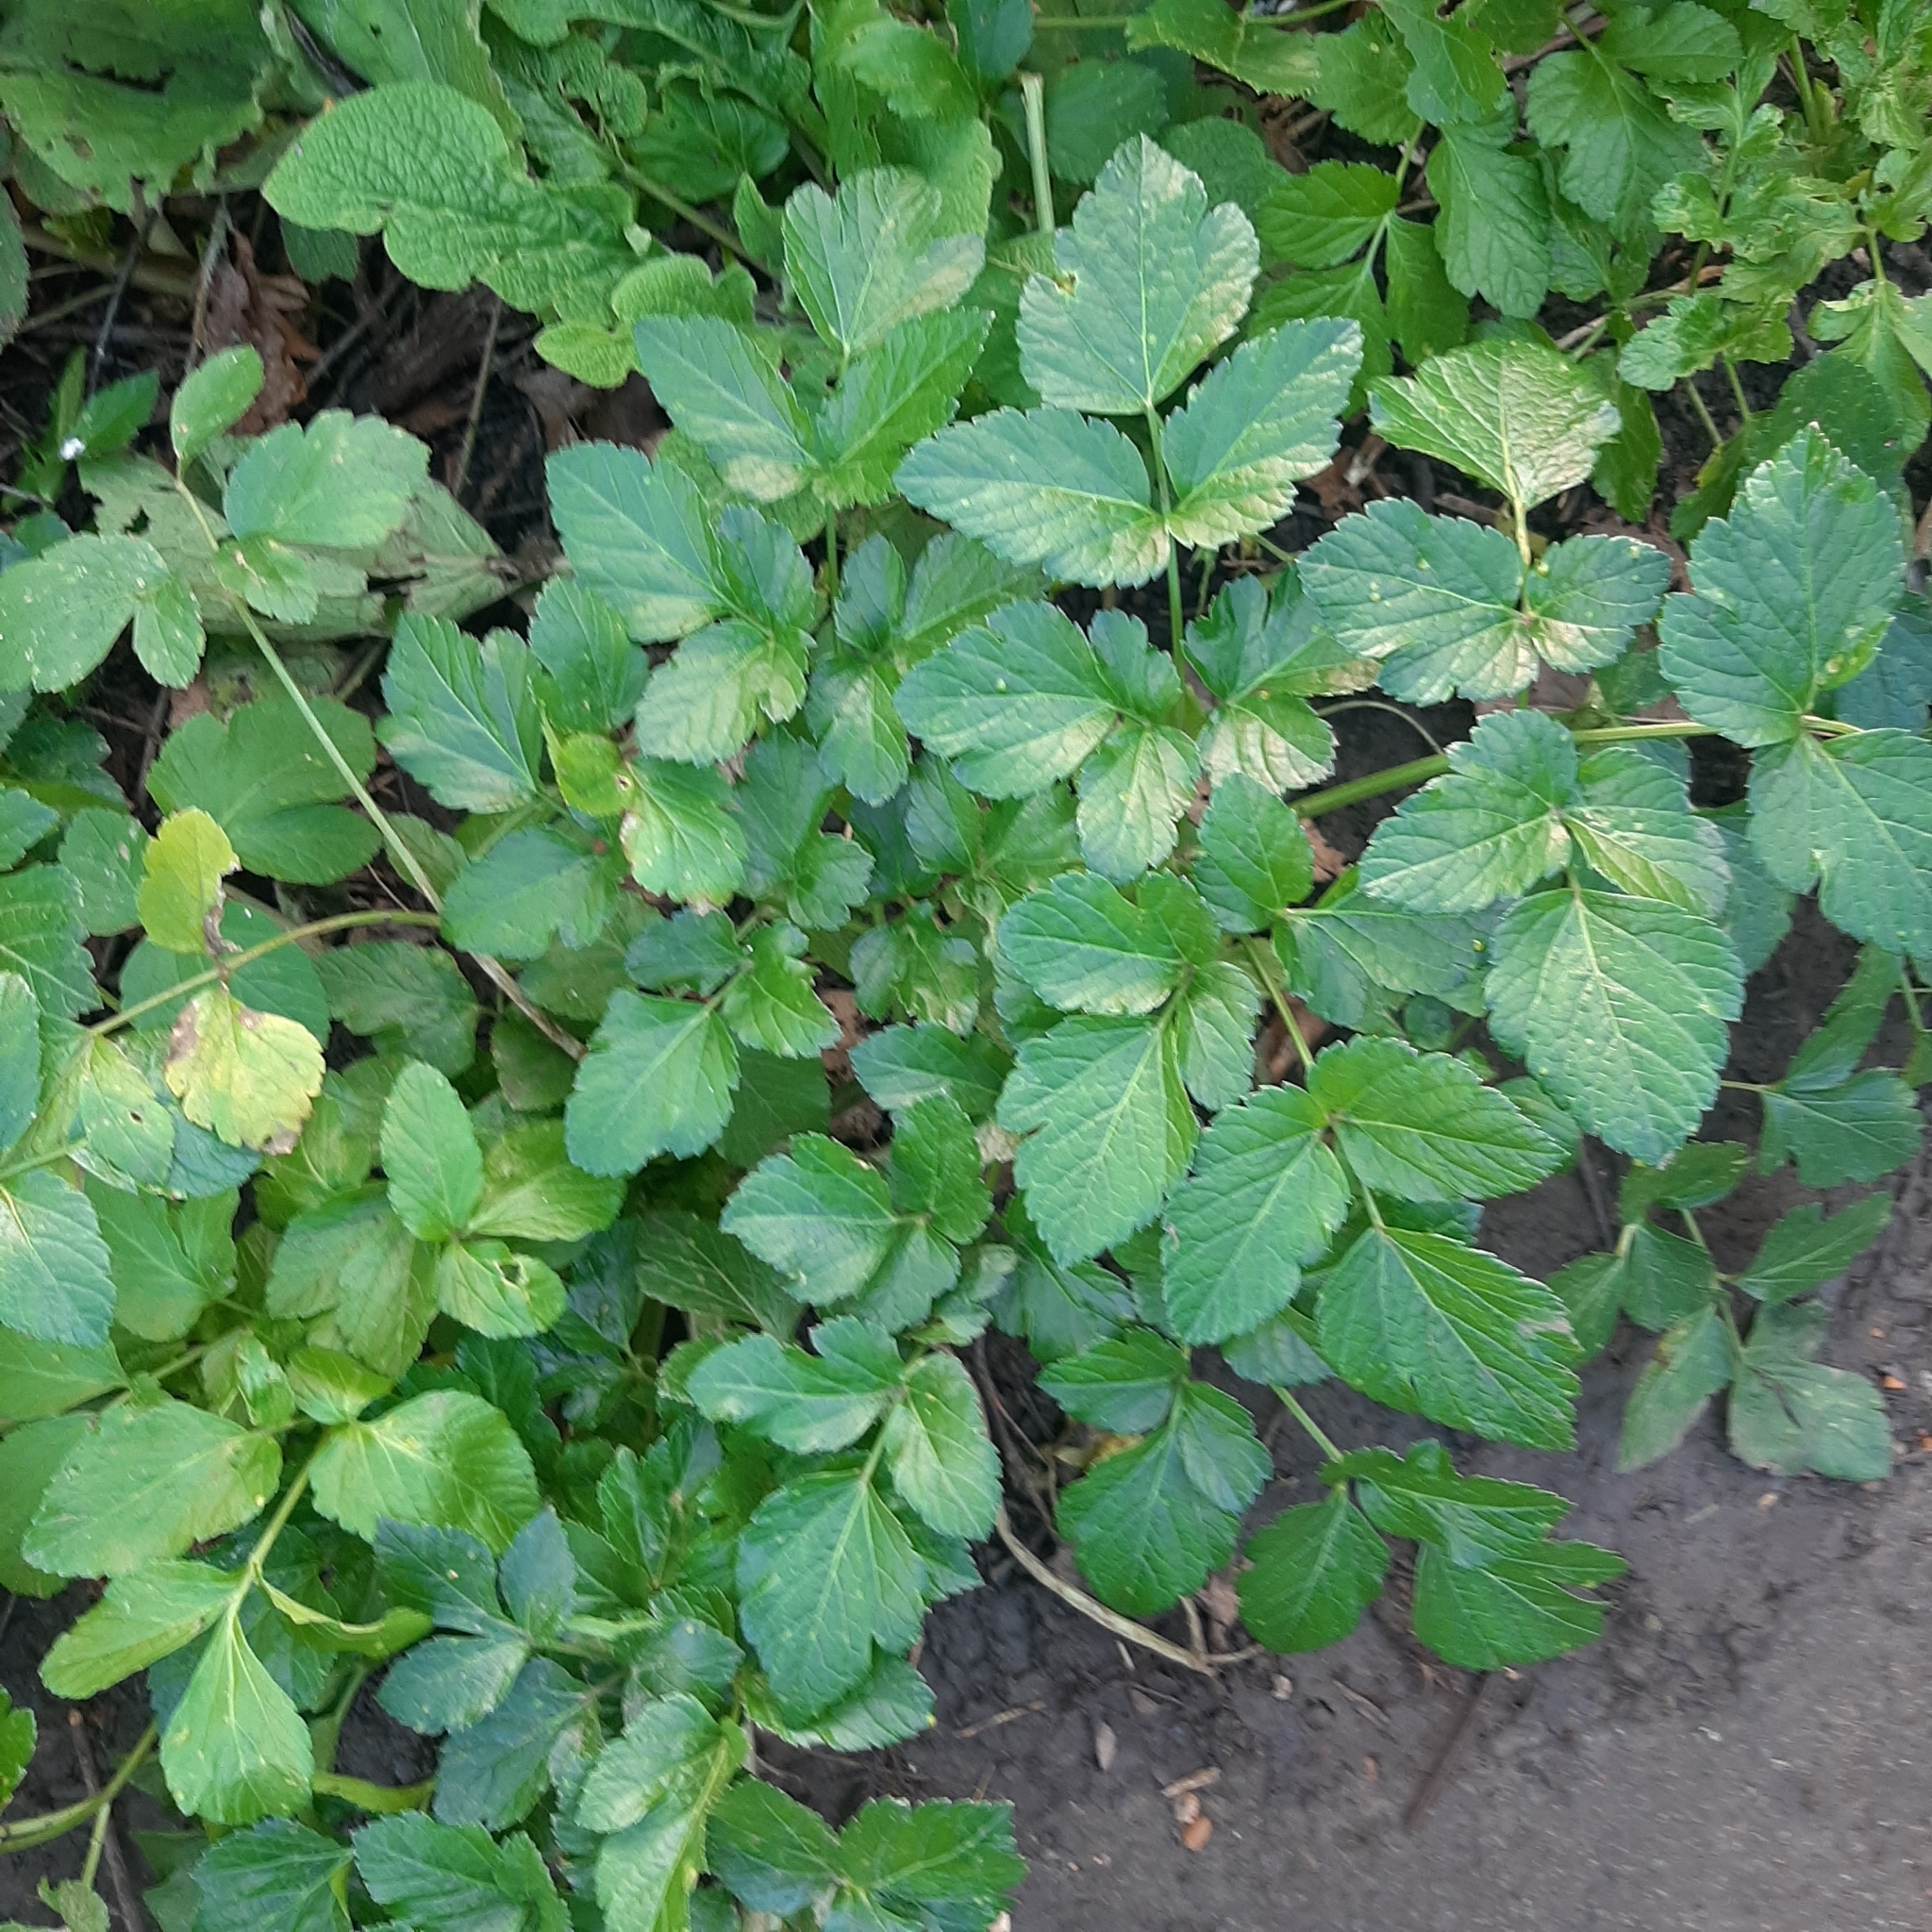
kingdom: Plantae
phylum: Tracheophyta
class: Magnoliopsida
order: Apiales
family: Apiaceae
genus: Smyrnium
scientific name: Smyrnium olusatrum
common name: Alexanders
